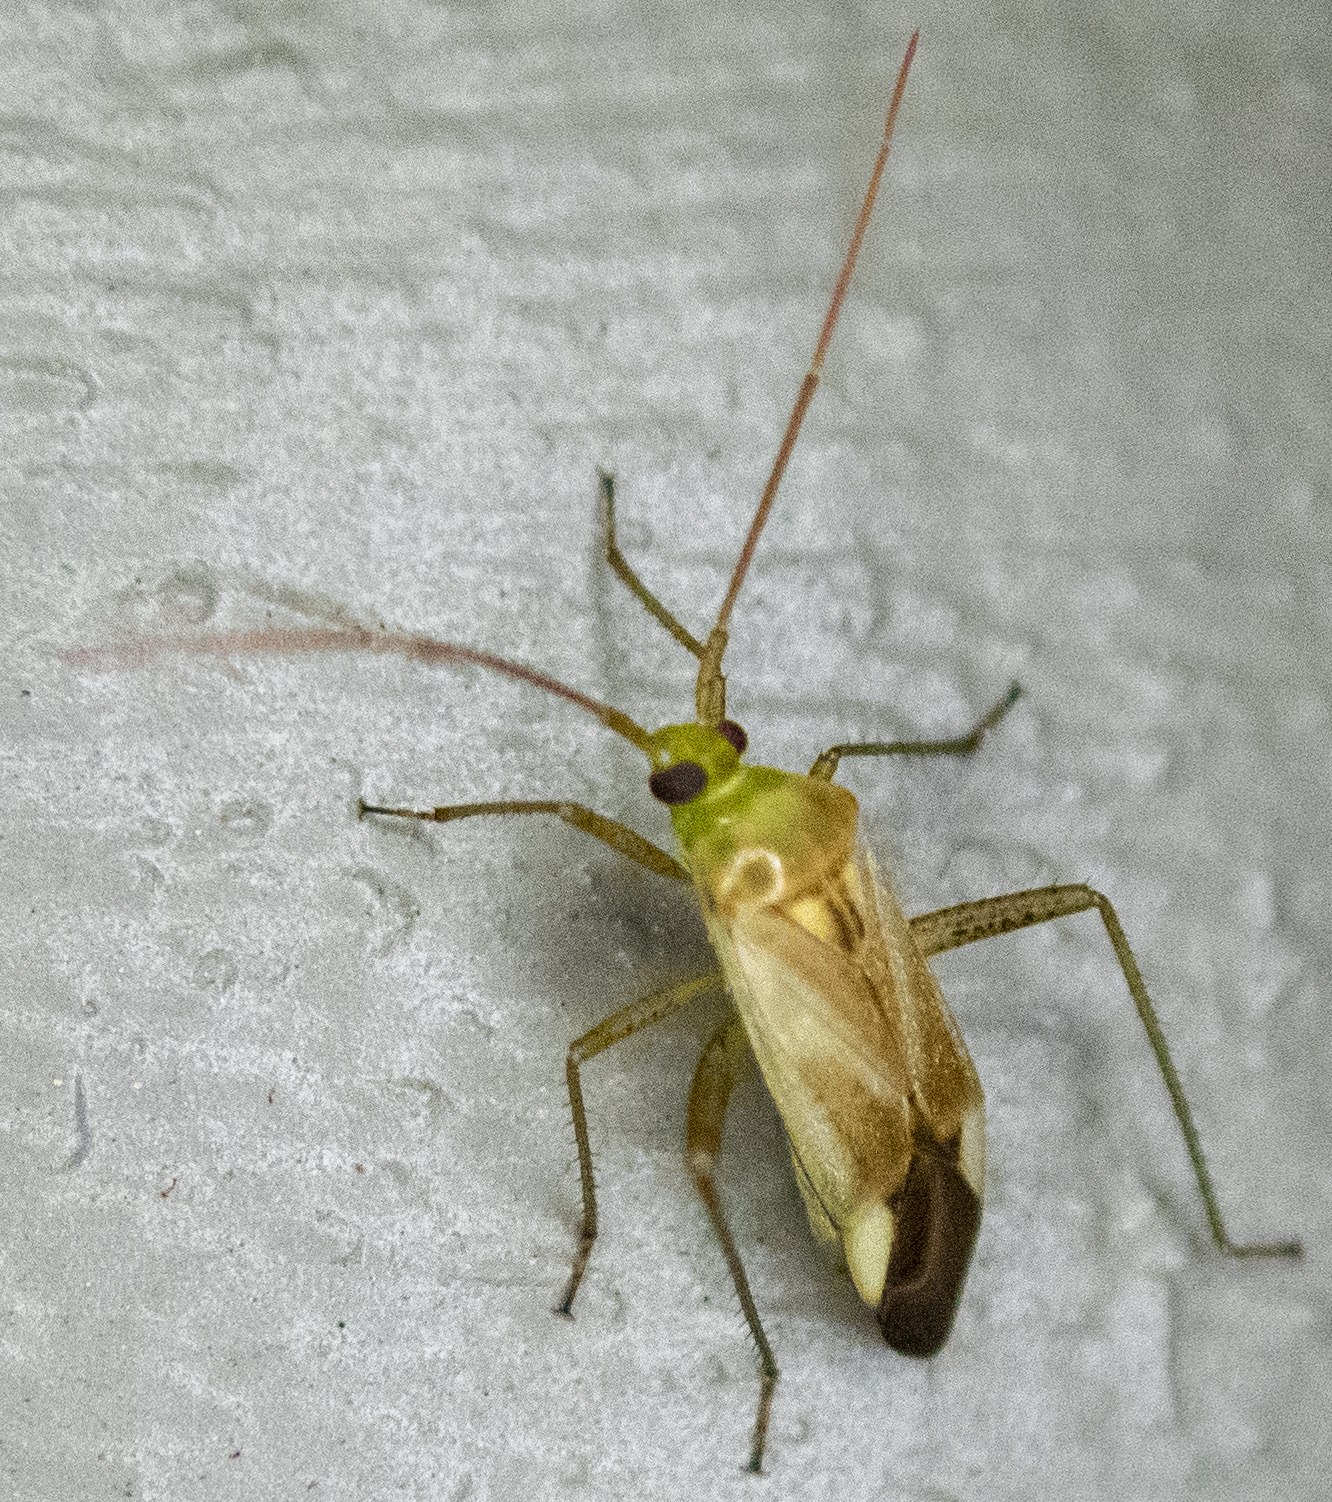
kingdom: Animalia
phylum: Arthropoda
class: Insecta
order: Hemiptera
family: Miridae
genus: Adelphocoris
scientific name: Adelphocoris lineolatus
